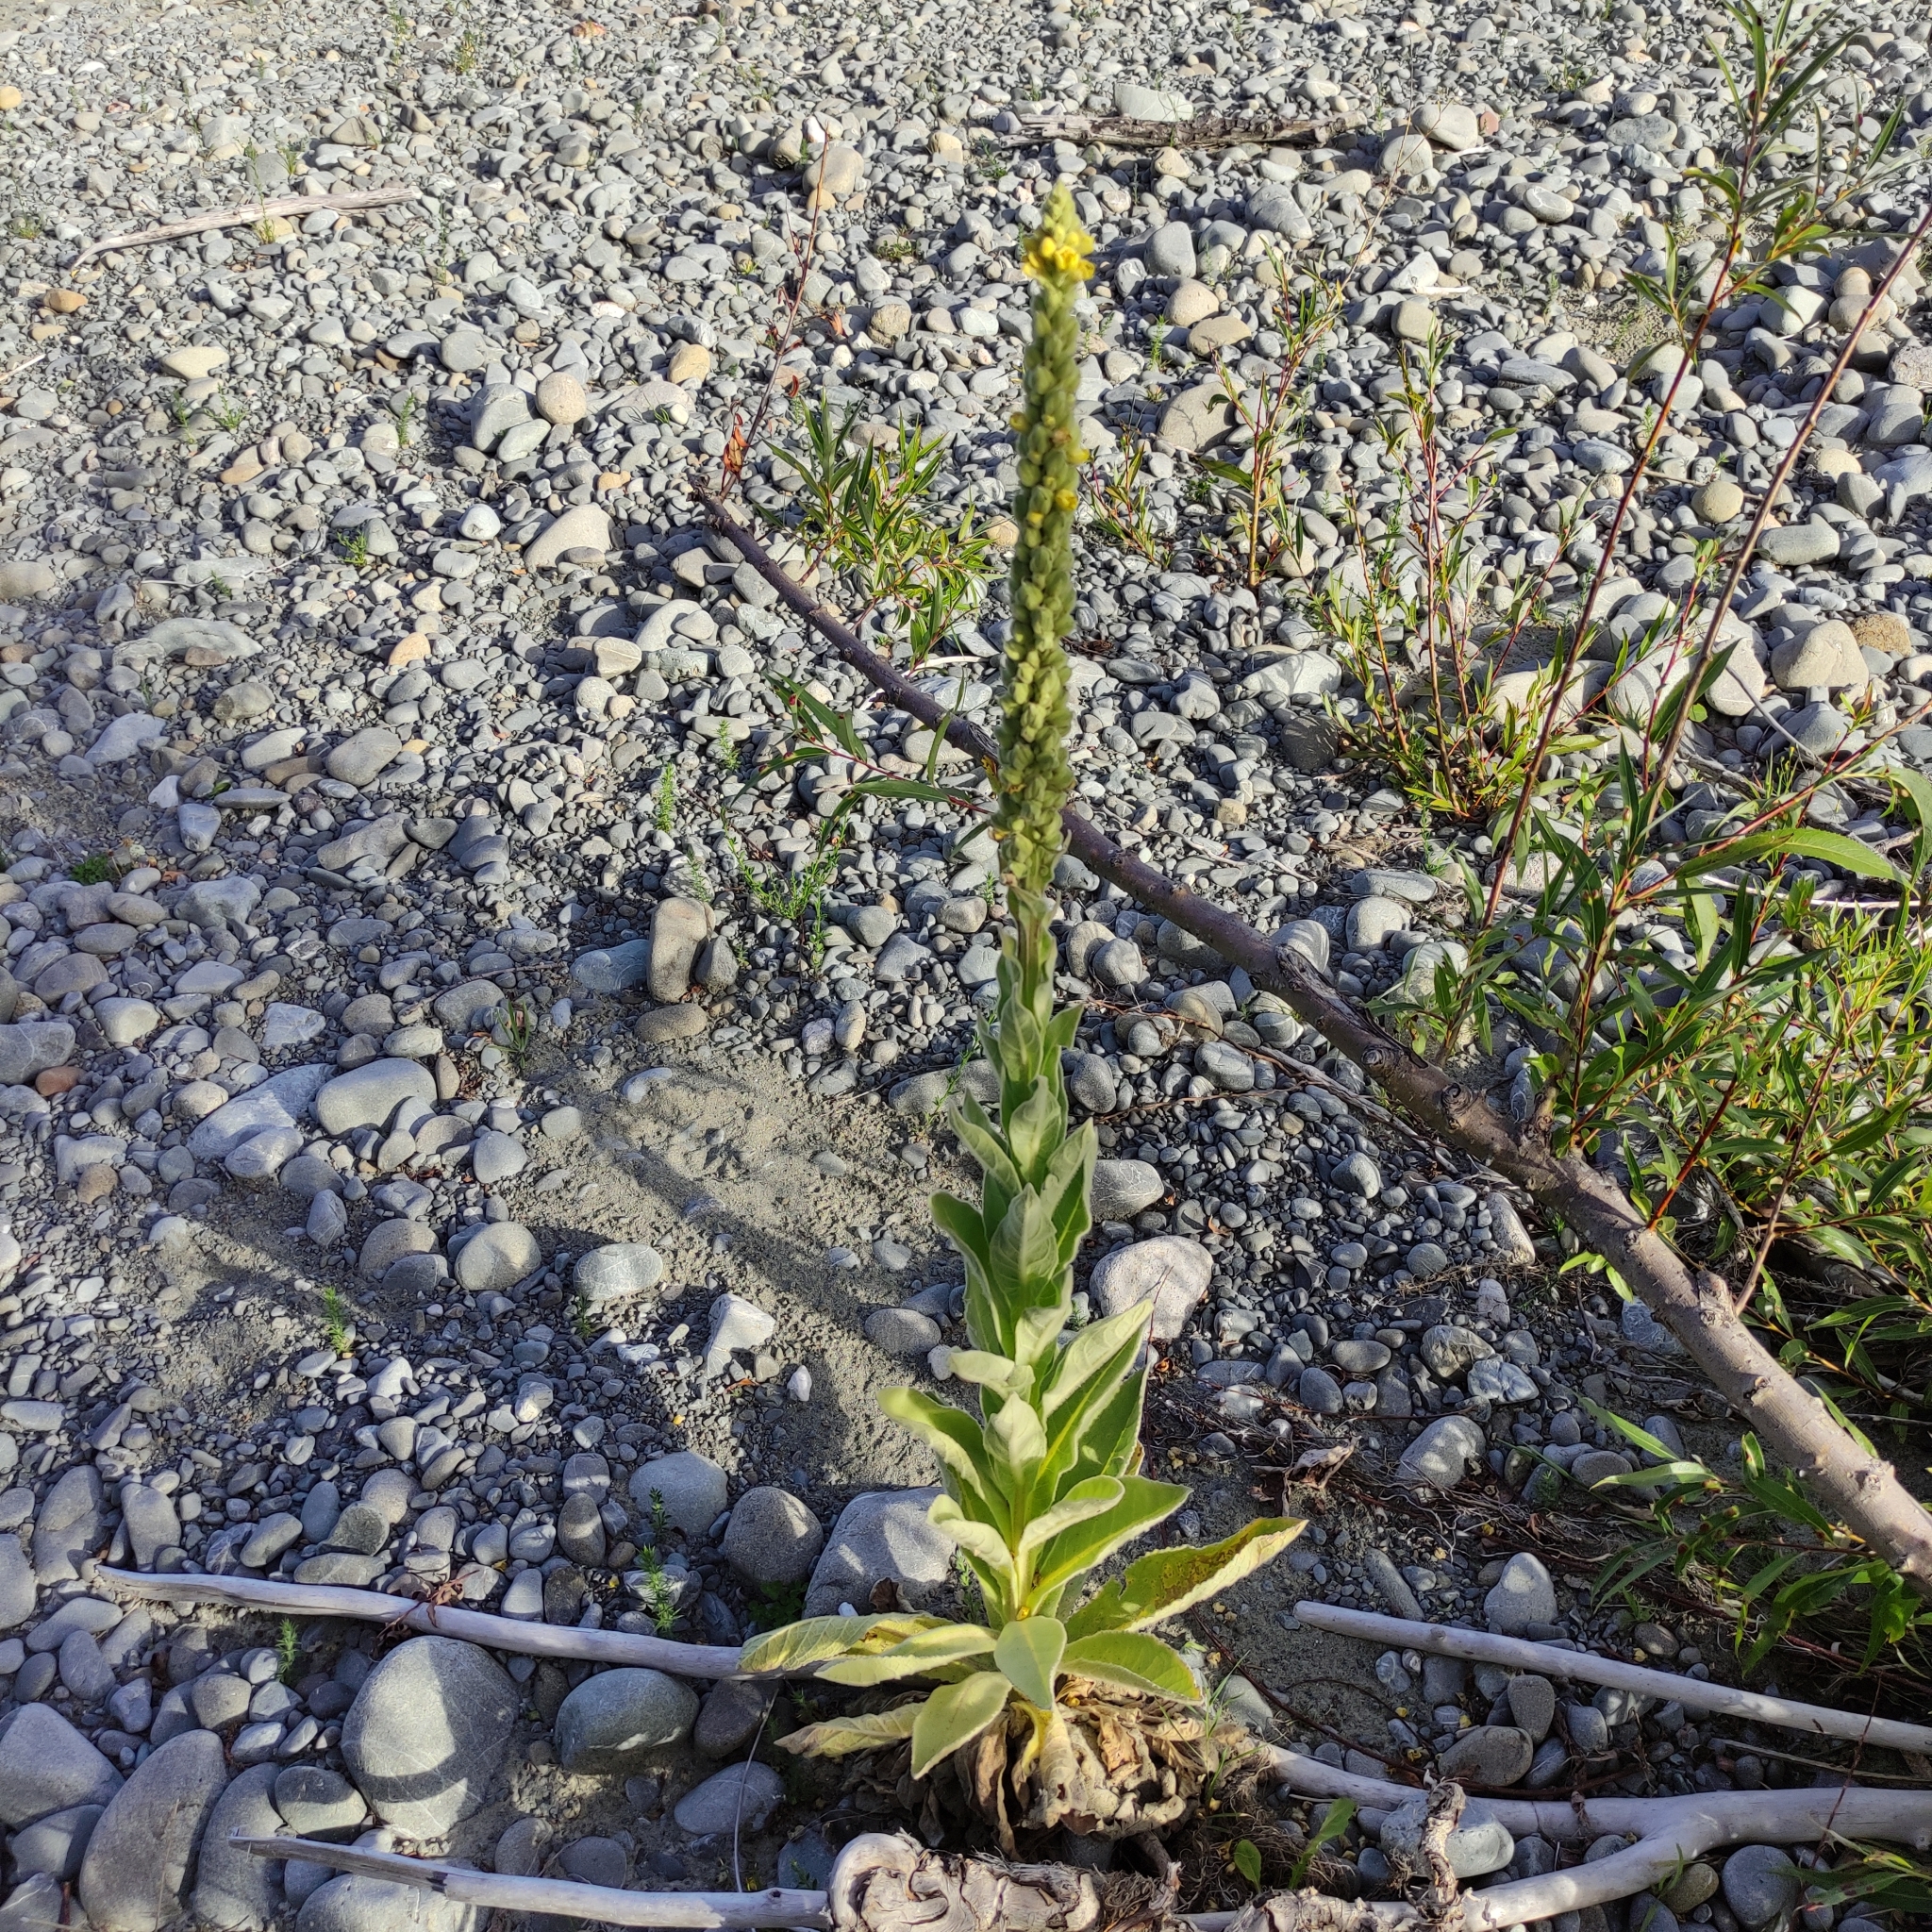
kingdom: Plantae
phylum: Tracheophyta
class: Magnoliopsida
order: Lamiales
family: Scrophulariaceae
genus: Verbascum
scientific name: Verbascum thapsus
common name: Common mullein
